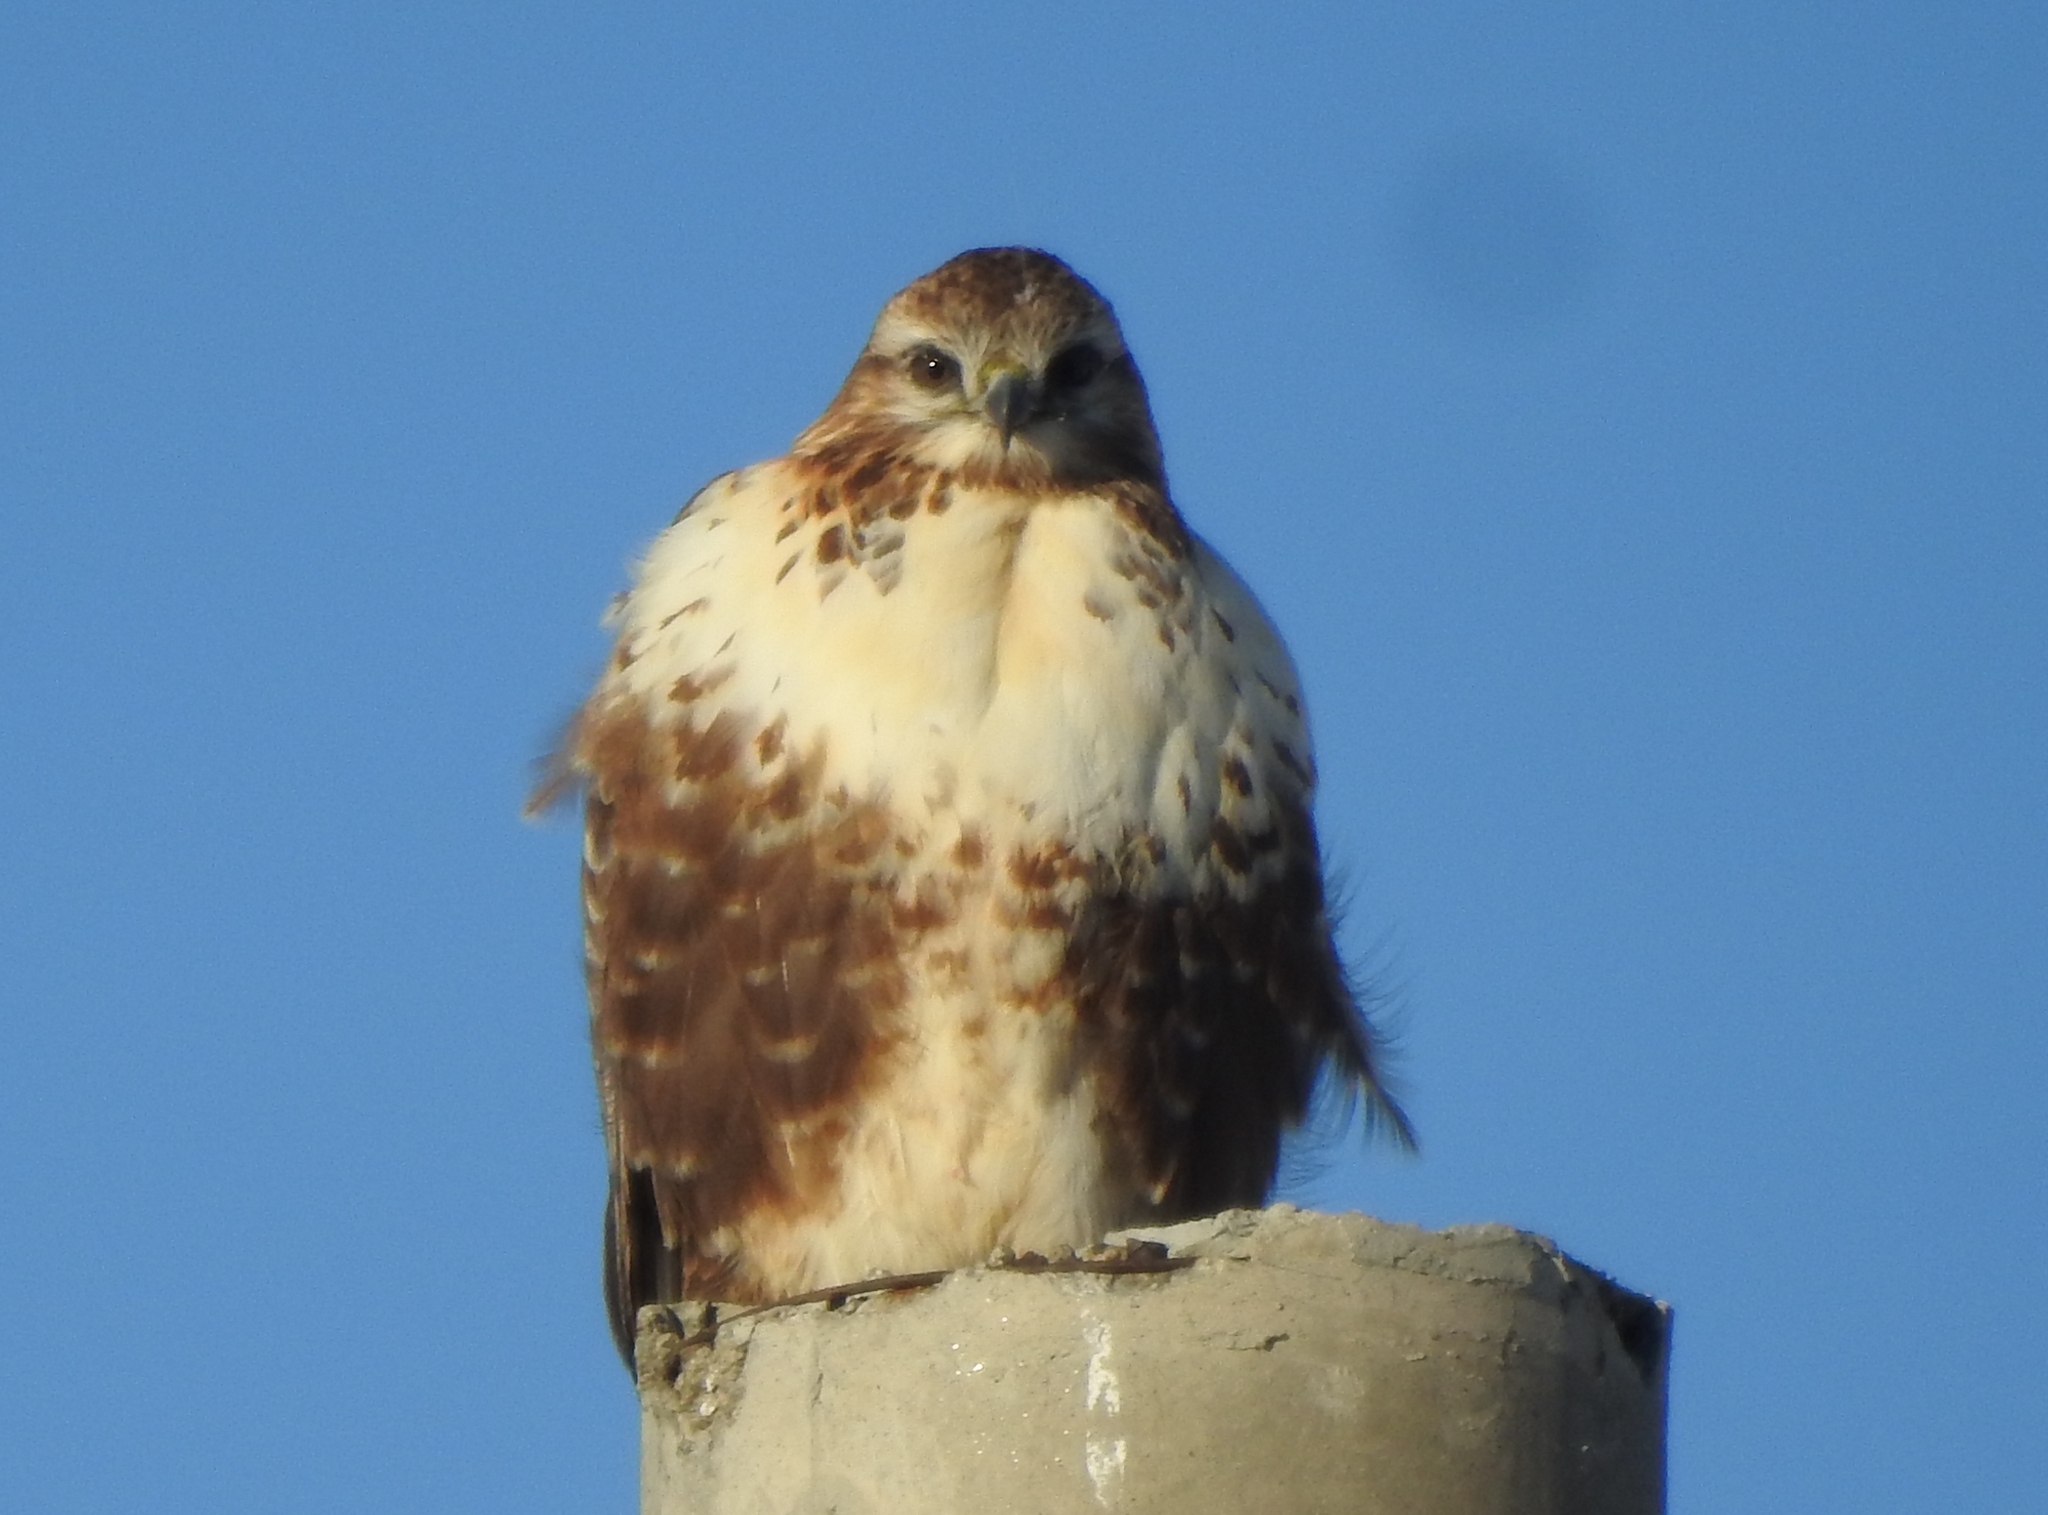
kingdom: Animalia
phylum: Chordata
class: Aves
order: Accipitriformes
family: Accipitridae
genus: Buteo
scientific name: Buteo hemilasius
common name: Upland buzzard
